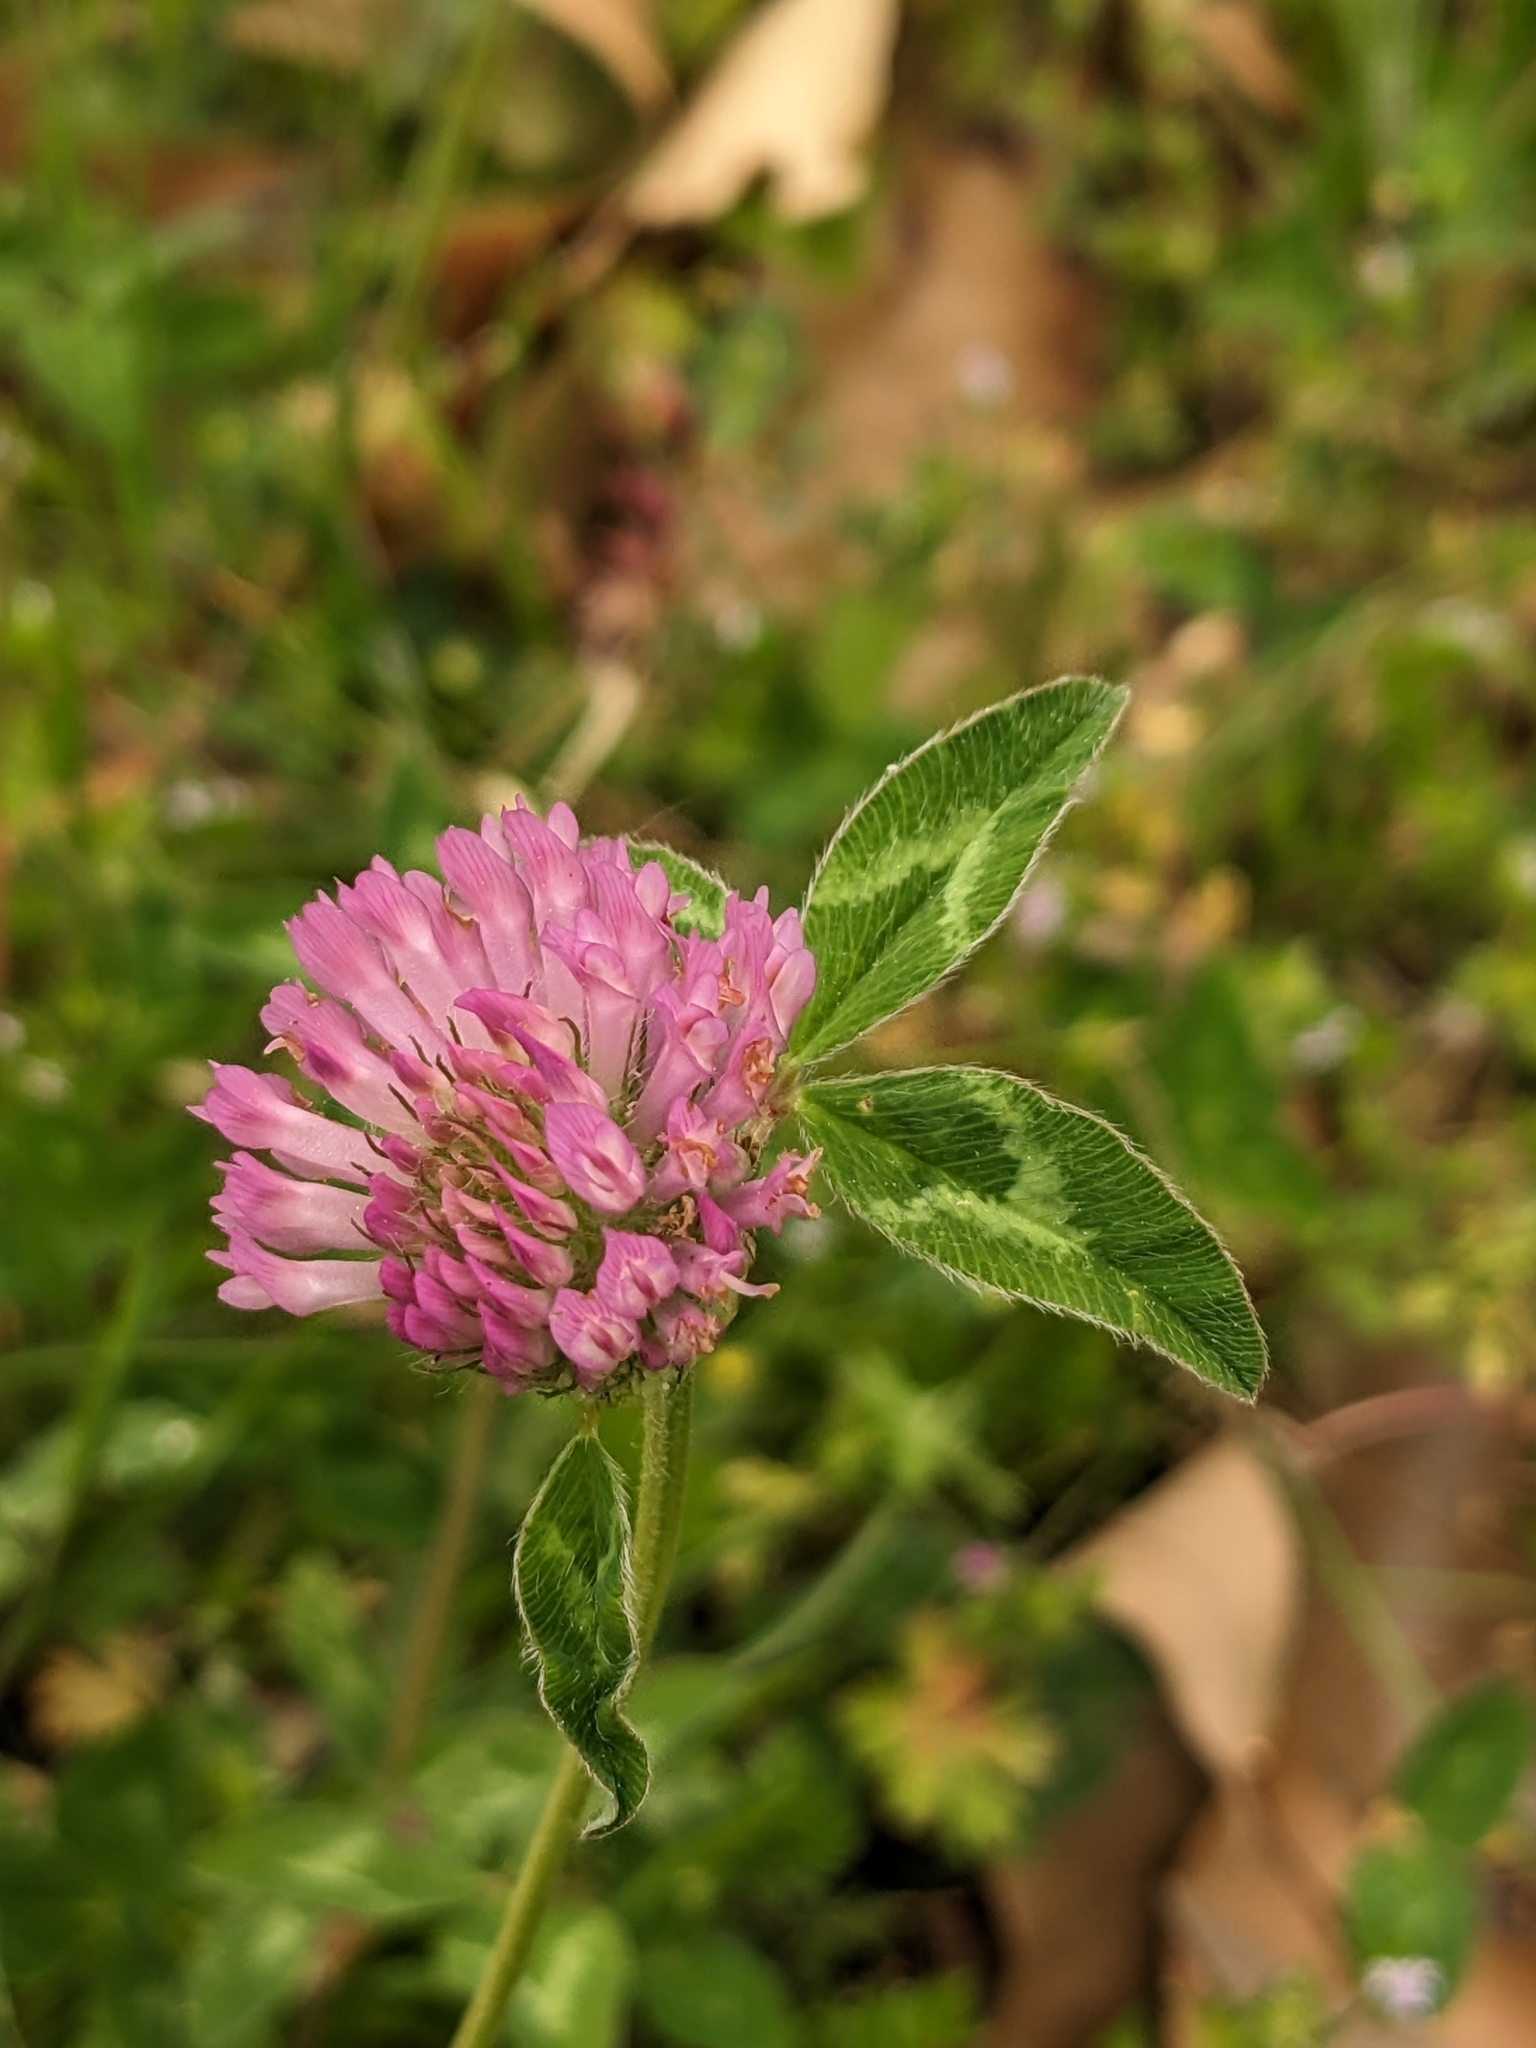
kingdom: Plantae
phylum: Tracheophyta
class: Magnoliopsida
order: Fabales
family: Fabaceae
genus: Trifolium
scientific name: Trifolium pratense
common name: Red clover
